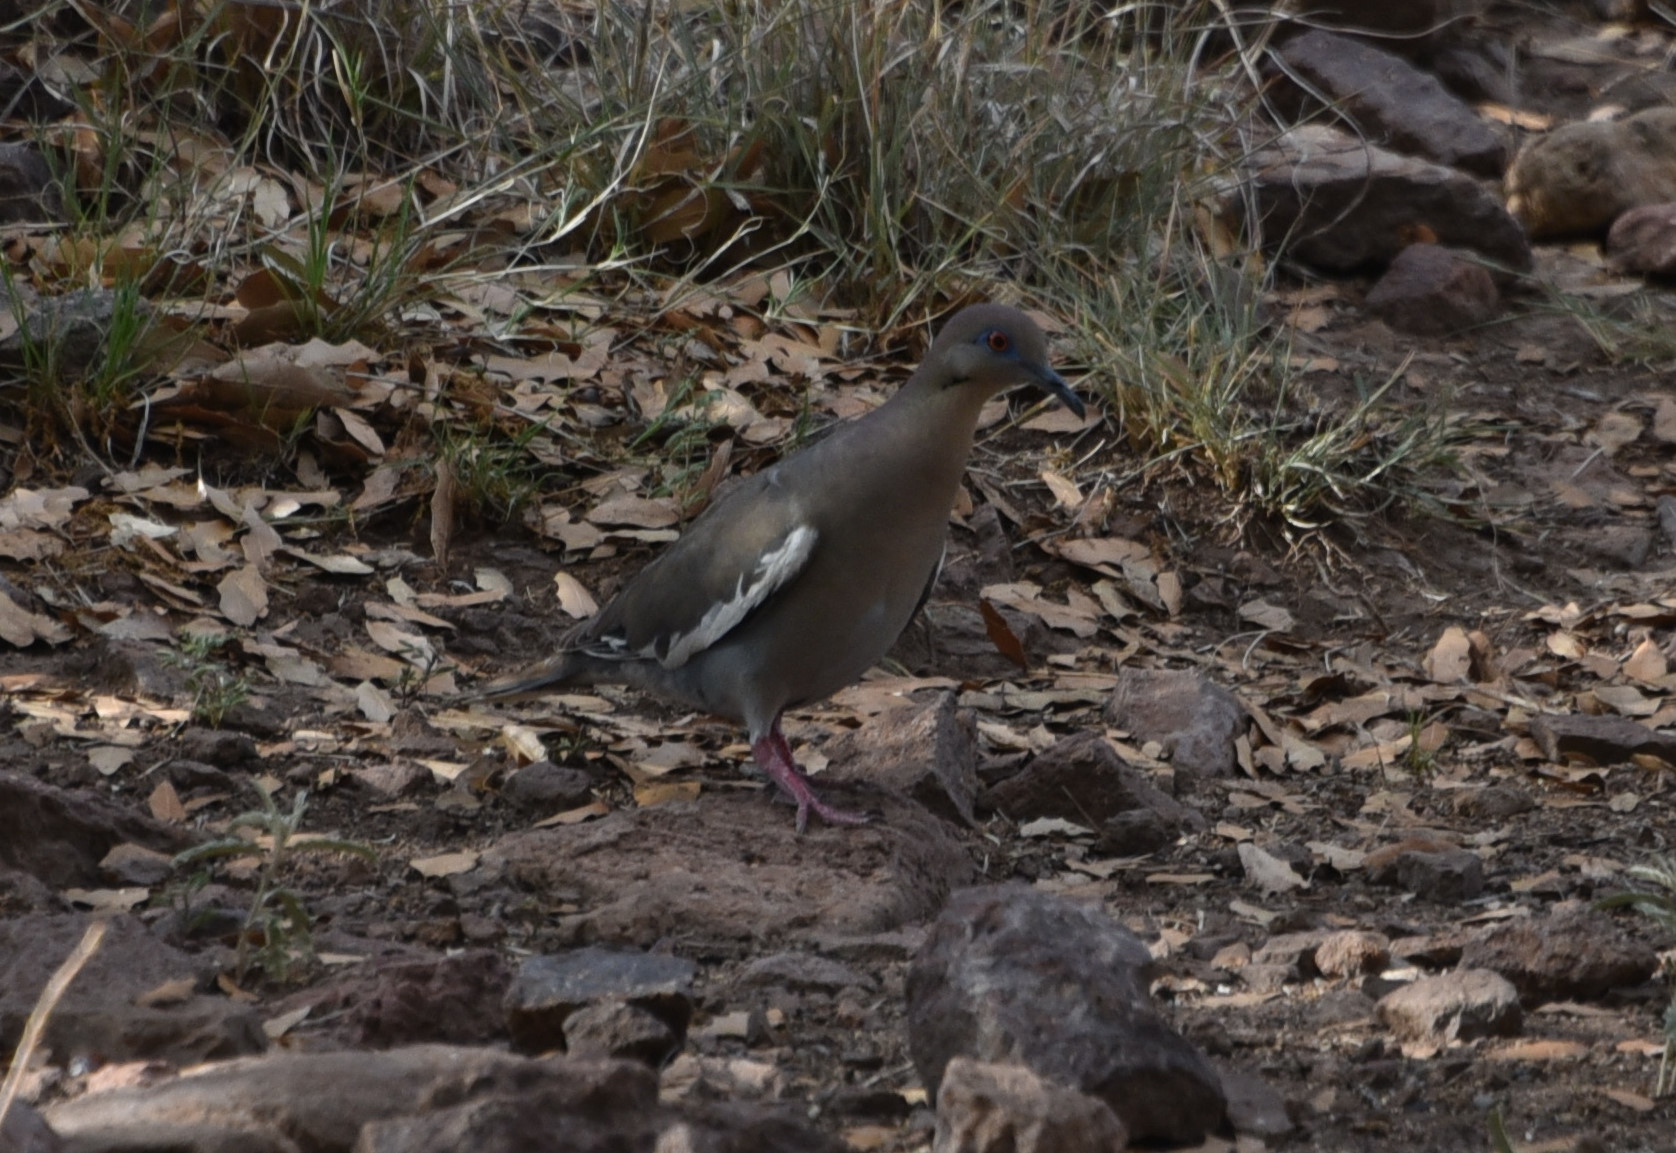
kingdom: Animalia
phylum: Chordata
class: Aves
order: Columbiformes
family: Columbidae
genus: Zenaida
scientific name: Zenaida asiatica
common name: White-winged dove
